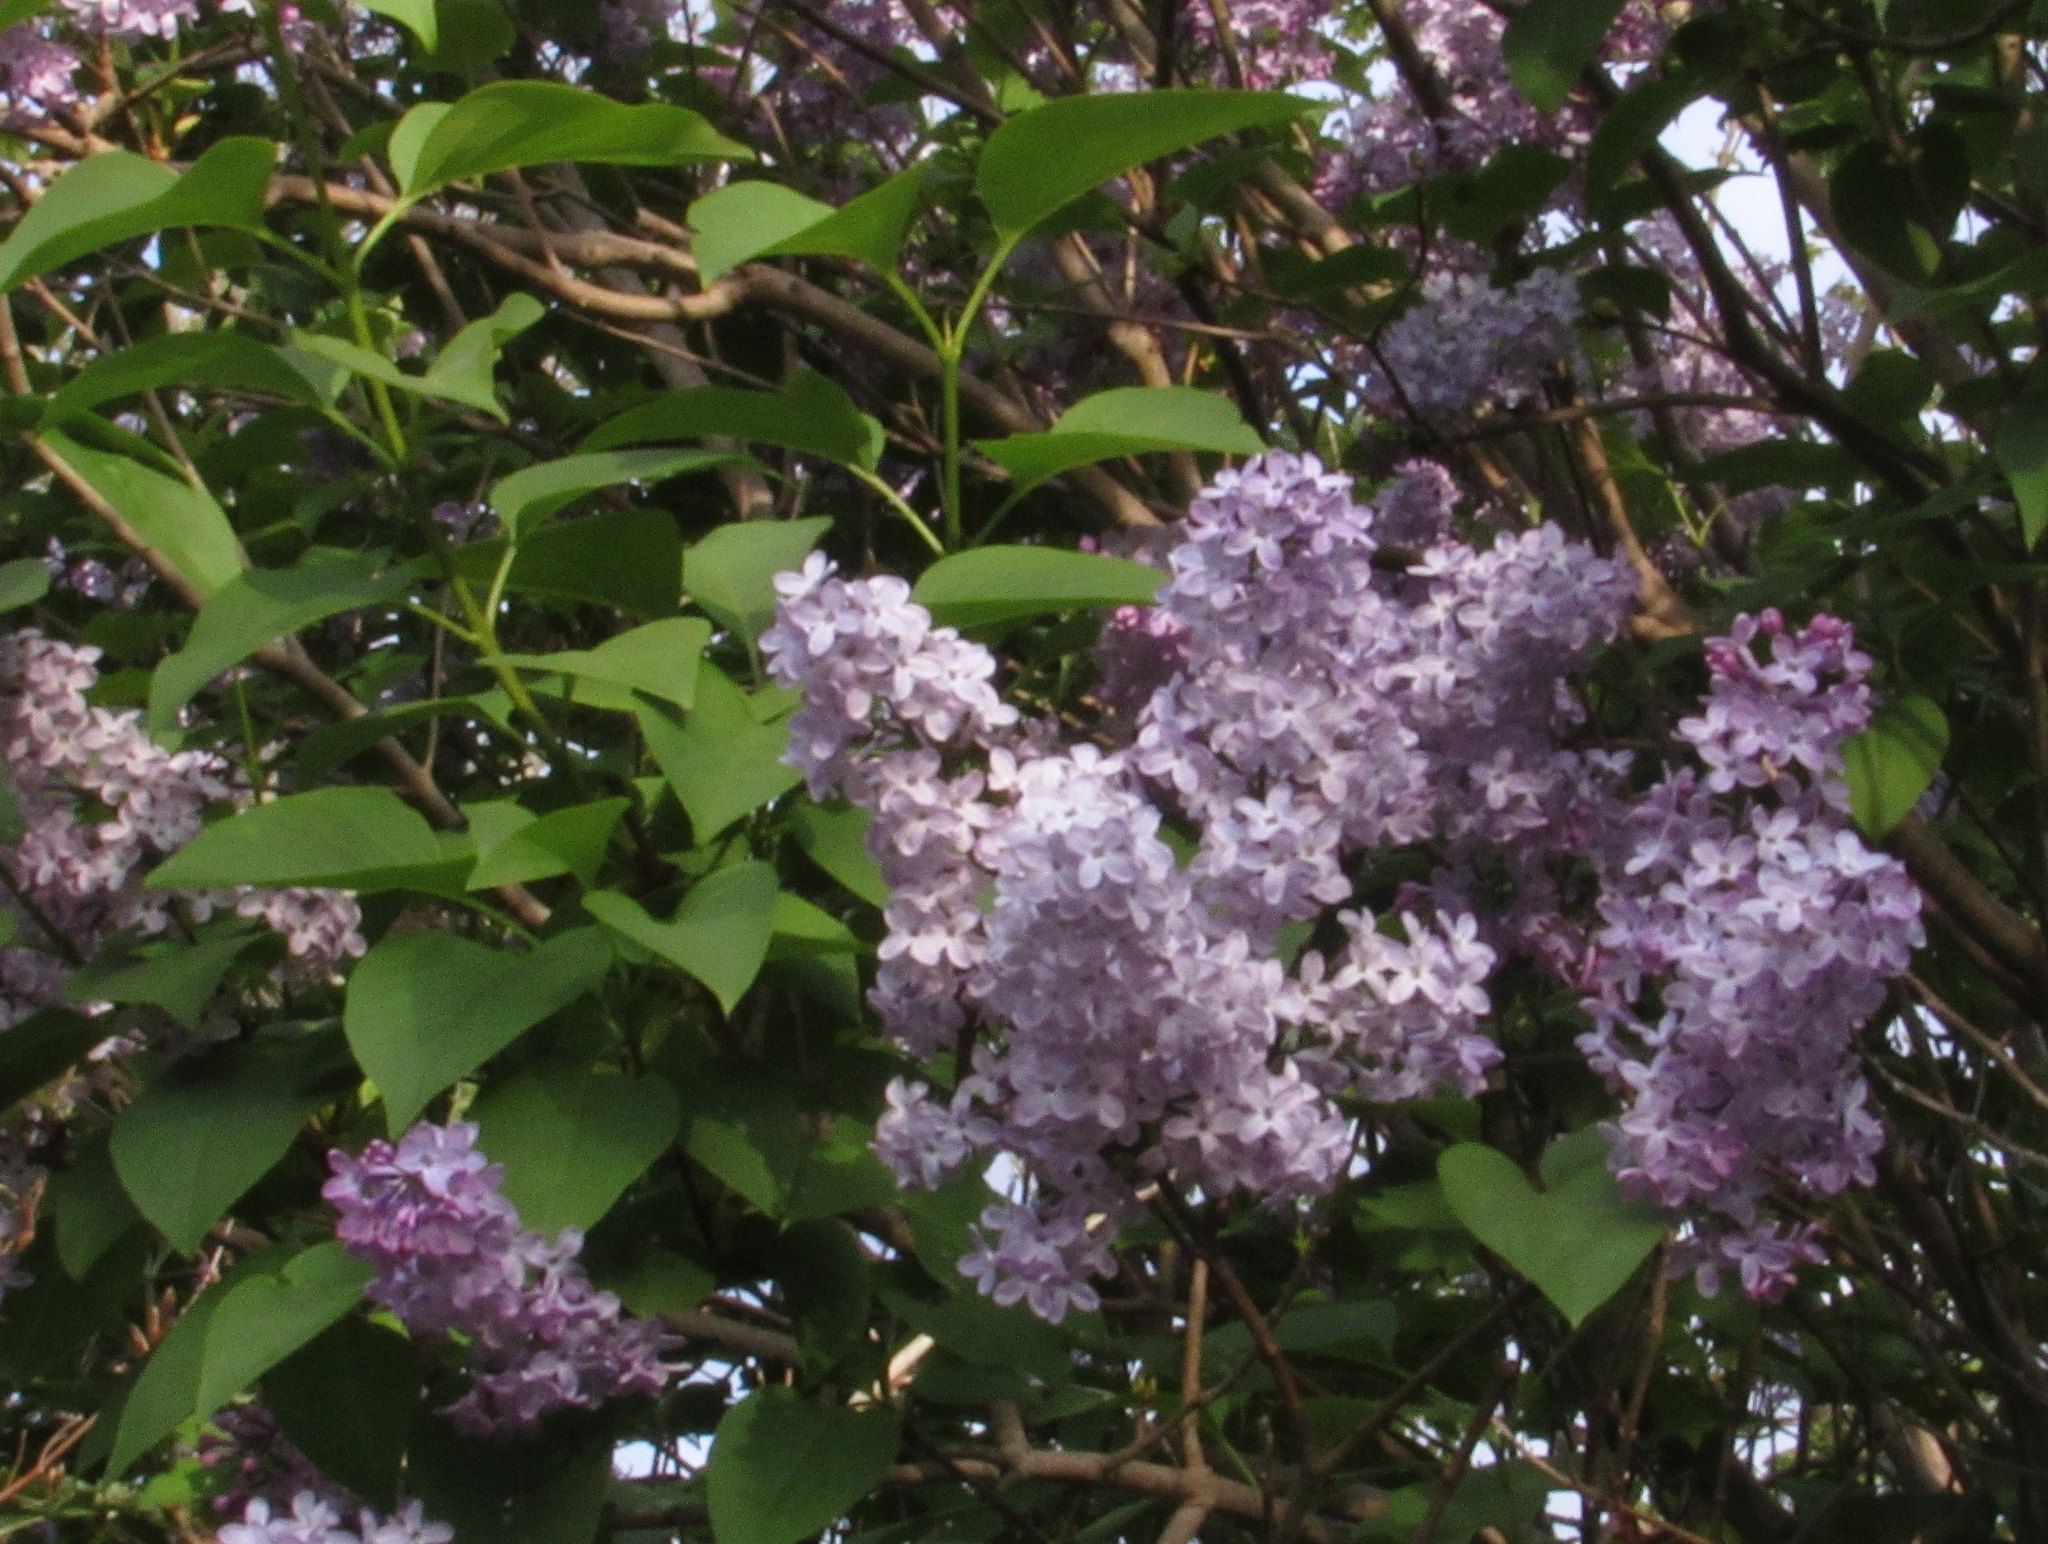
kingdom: Plantae
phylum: Tracheophyta
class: Magnoliopsida
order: Lamiales
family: Oleaceae
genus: Syringa
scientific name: Syringa vulgaris
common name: Common lilac
